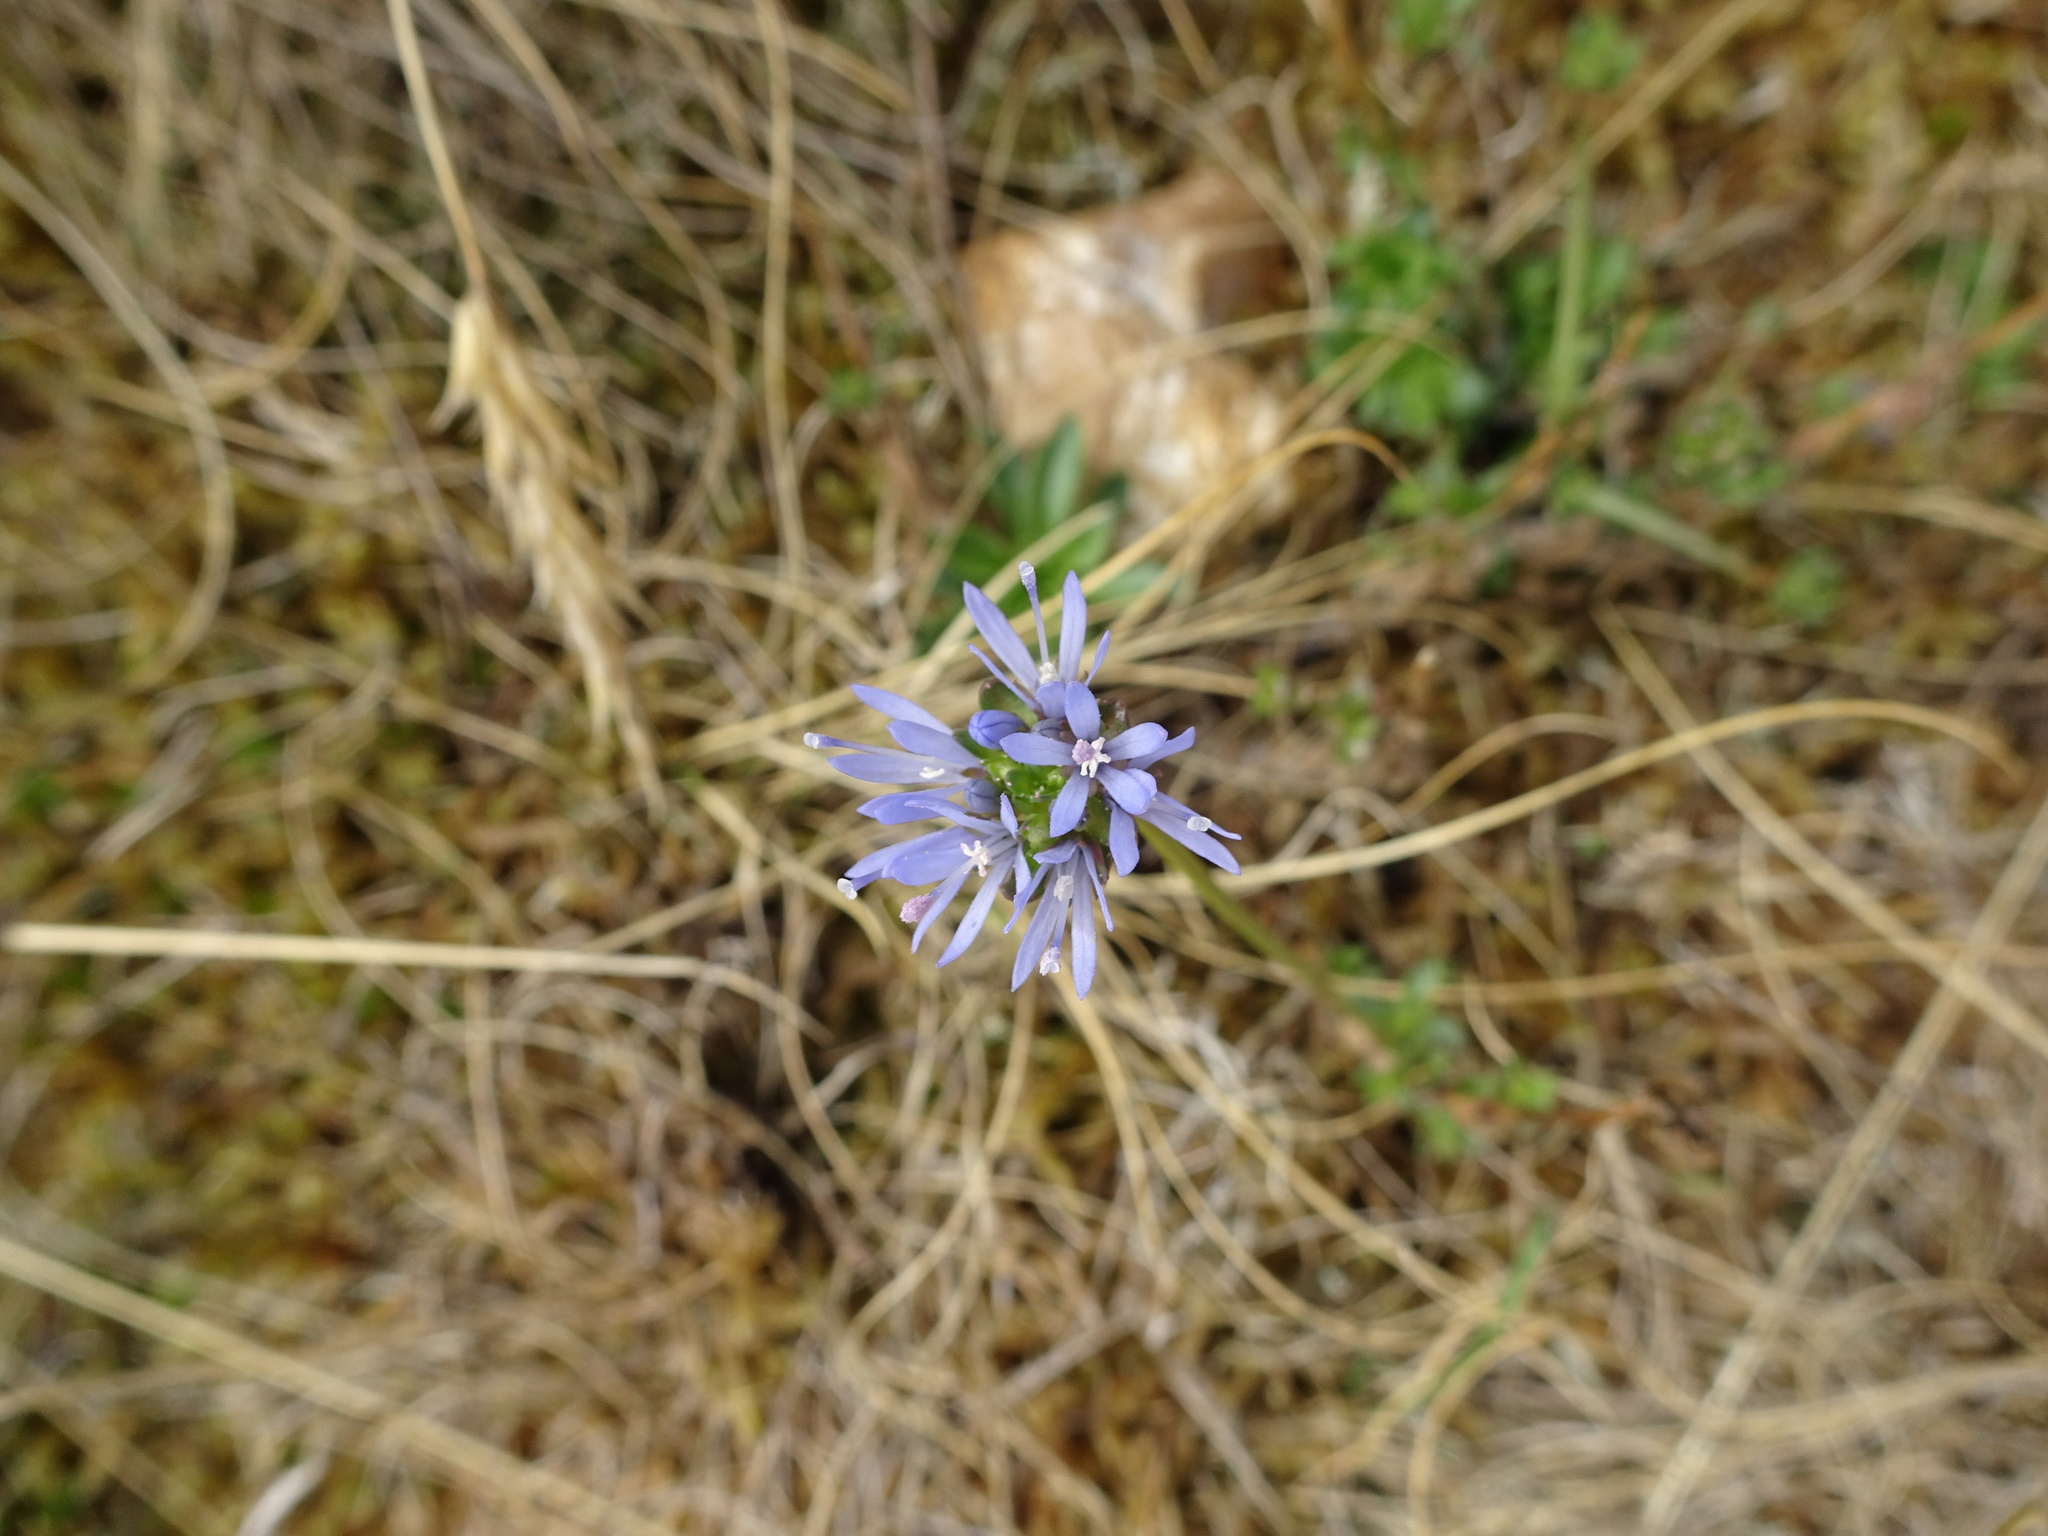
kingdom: Plantae
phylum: Tracheophyta
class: Magnoliopsida
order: Asterales
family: Campanulaceae
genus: Jasione
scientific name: Jasione montana
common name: Sheep's-bit
